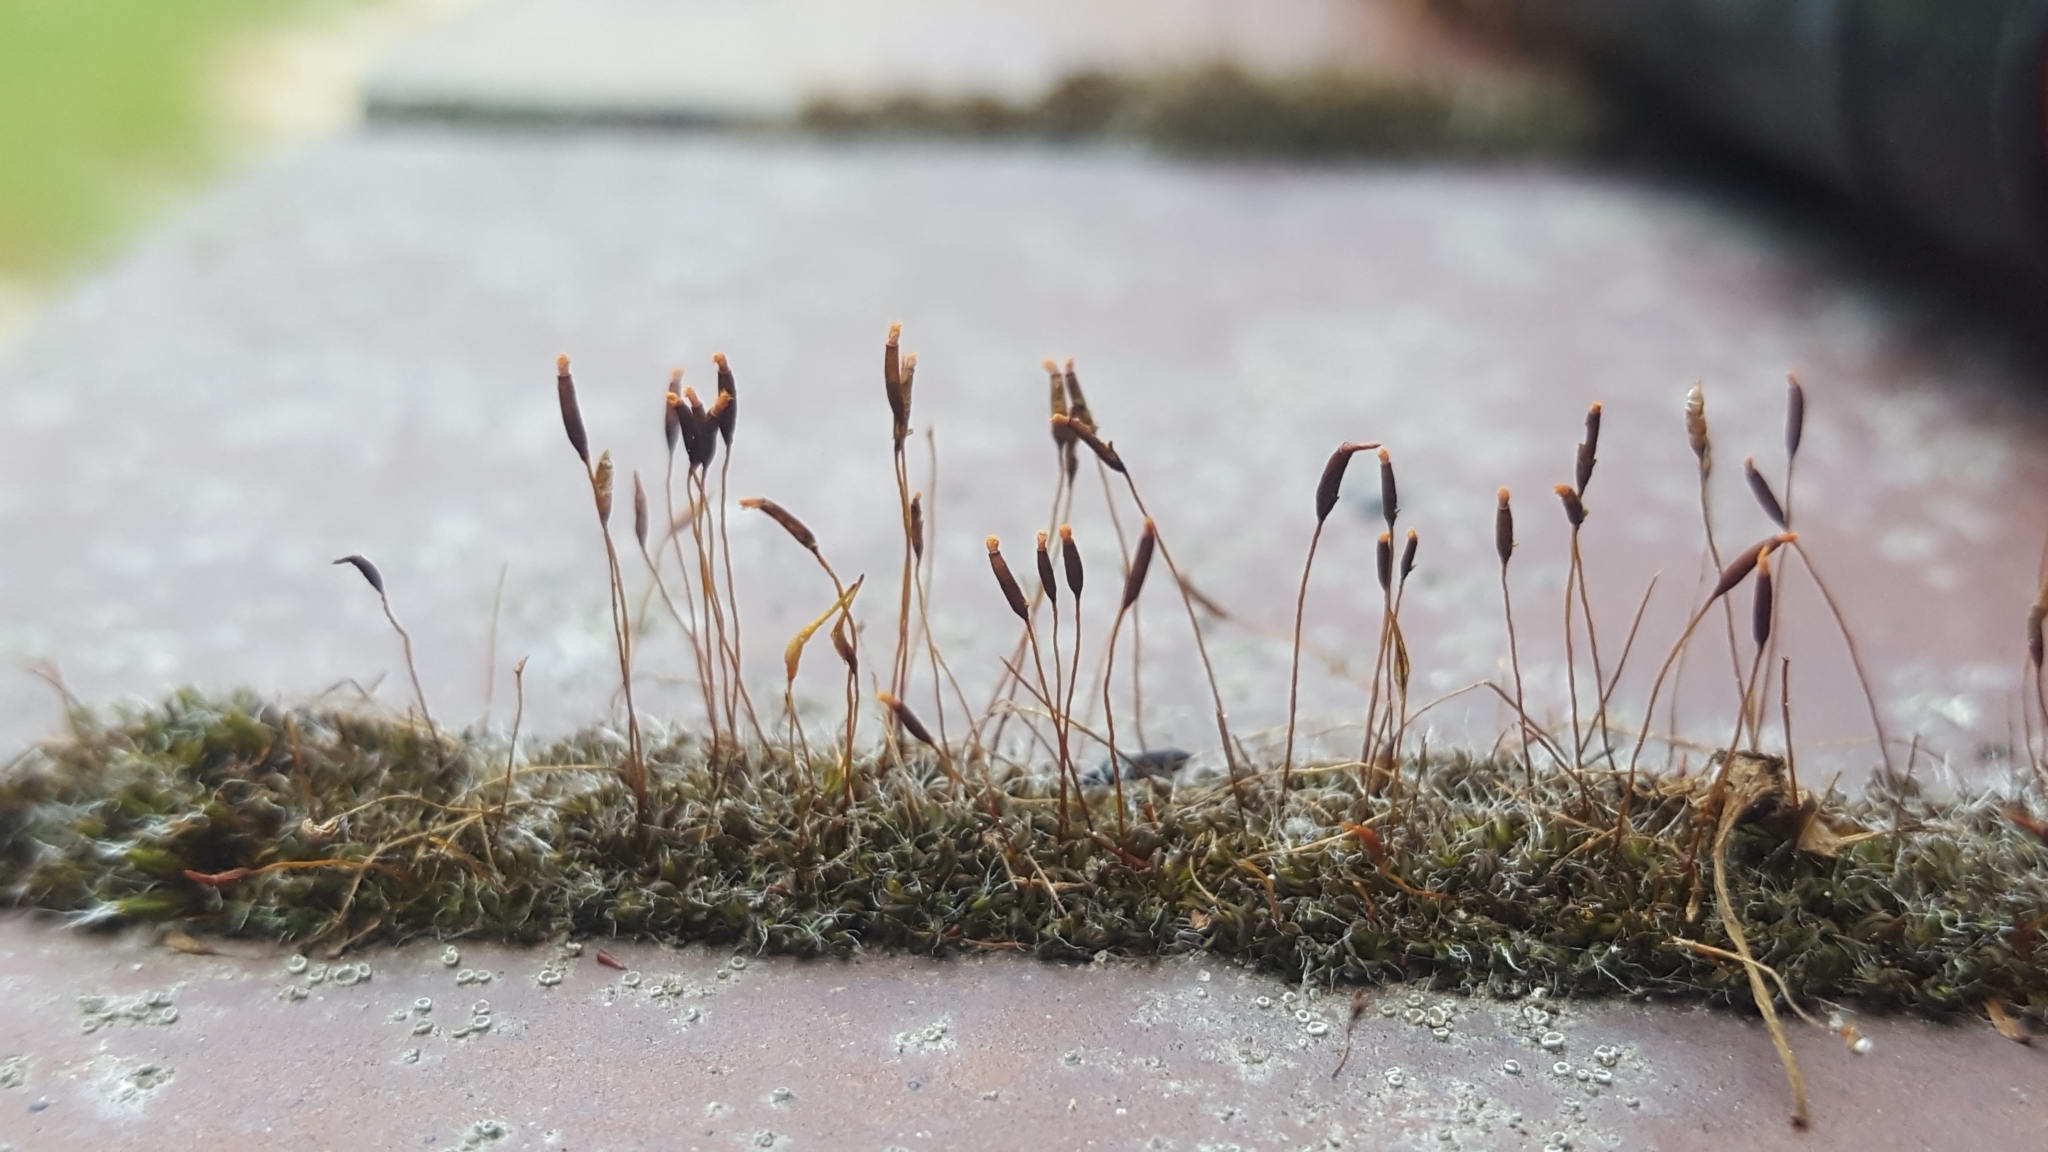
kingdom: Plantae
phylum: Bryophyta
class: Bryopsida
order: Pottiales
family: Pottiaceae
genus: Tortula
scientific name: Tortula muralis
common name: Wall screw-moss
